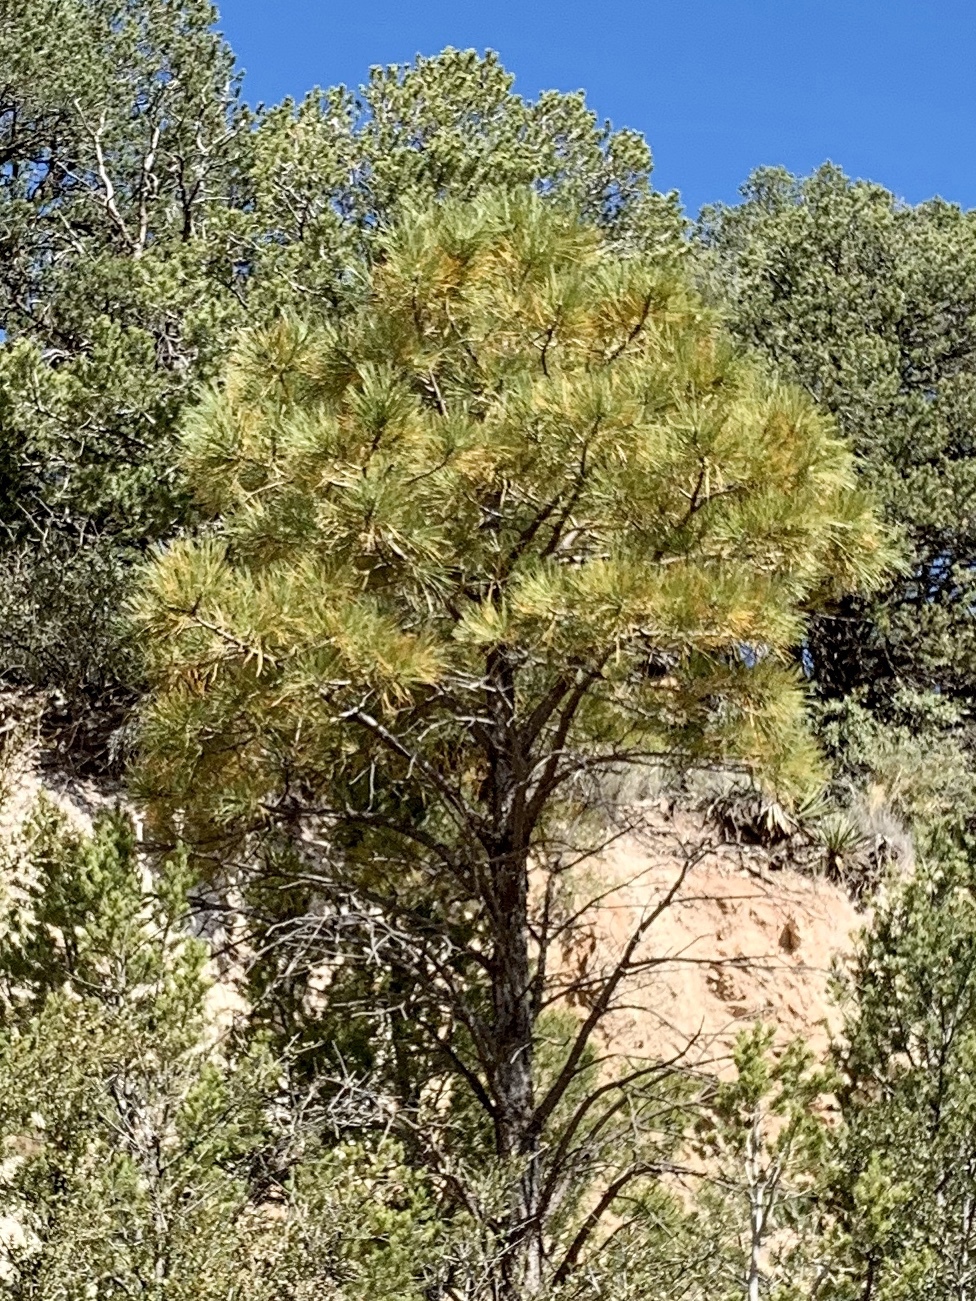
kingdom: Plantae
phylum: Tracheophyta
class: Pinopsida
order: Pinales
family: Pinaceae
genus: Pinus
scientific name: Pinus ponderosa
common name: Western yellow-pine
